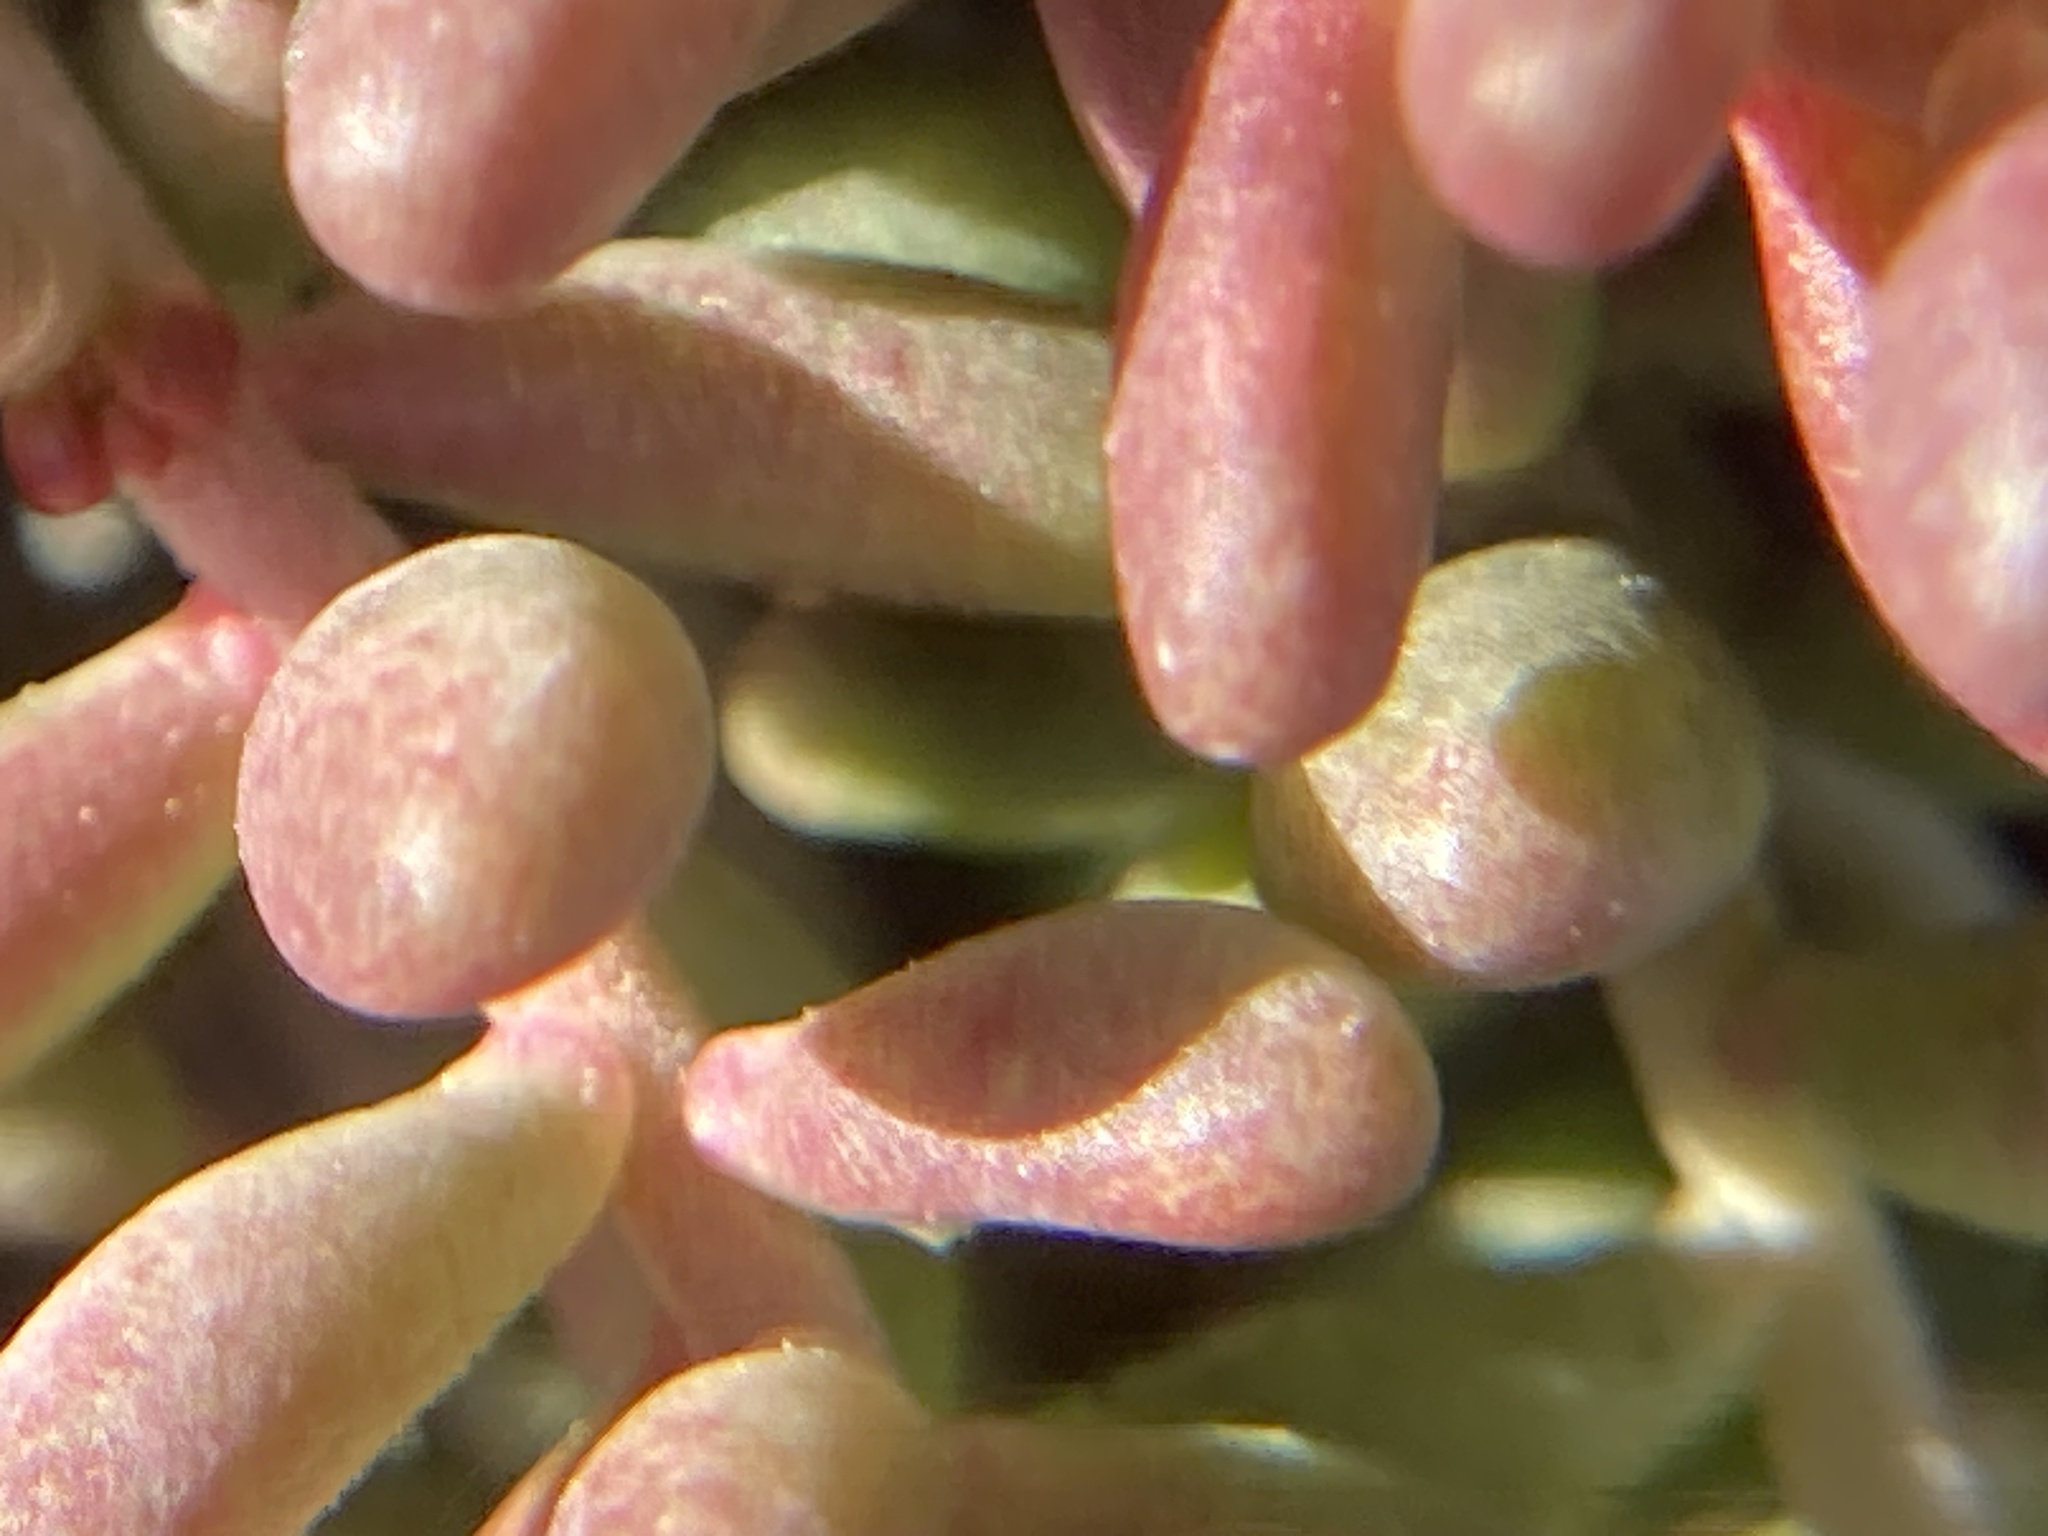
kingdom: Plantae
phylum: Tracheophyta
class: Magnoliopsida
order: Saxifragales
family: Crassulaceae
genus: Sedum
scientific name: Sedum album
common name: White stonecrop
